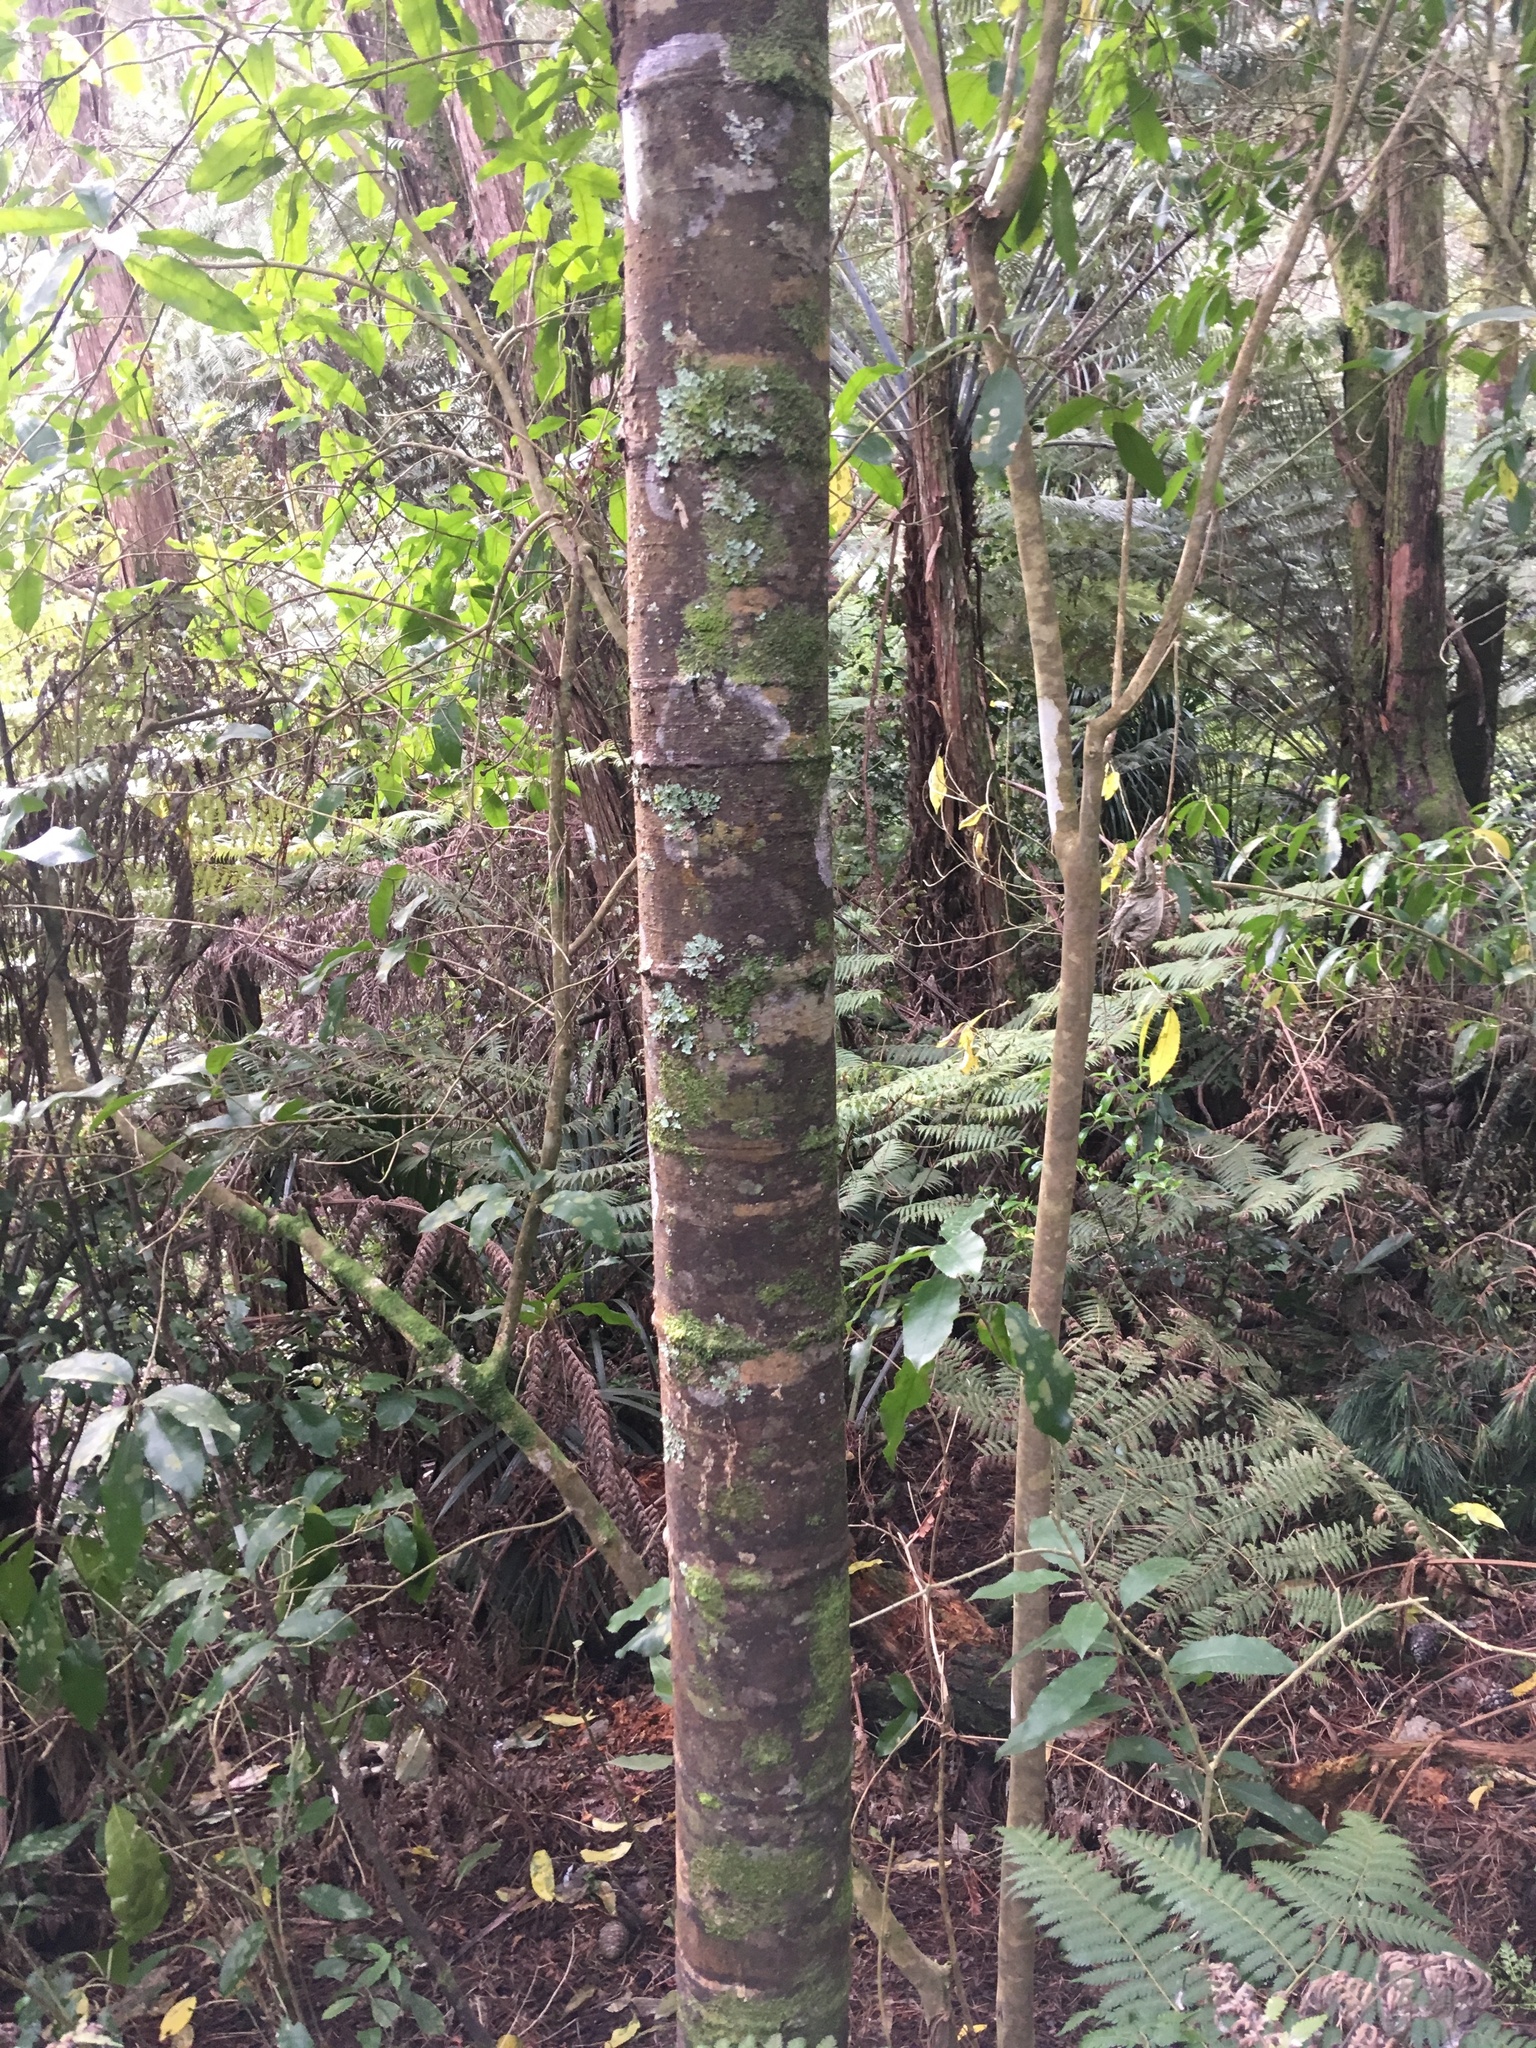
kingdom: Plantae
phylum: Tracheophyta
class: Polypodiopsida
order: Cyatheales
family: Cyatheaceae
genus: Alsophila
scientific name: Alsophila dealbata
